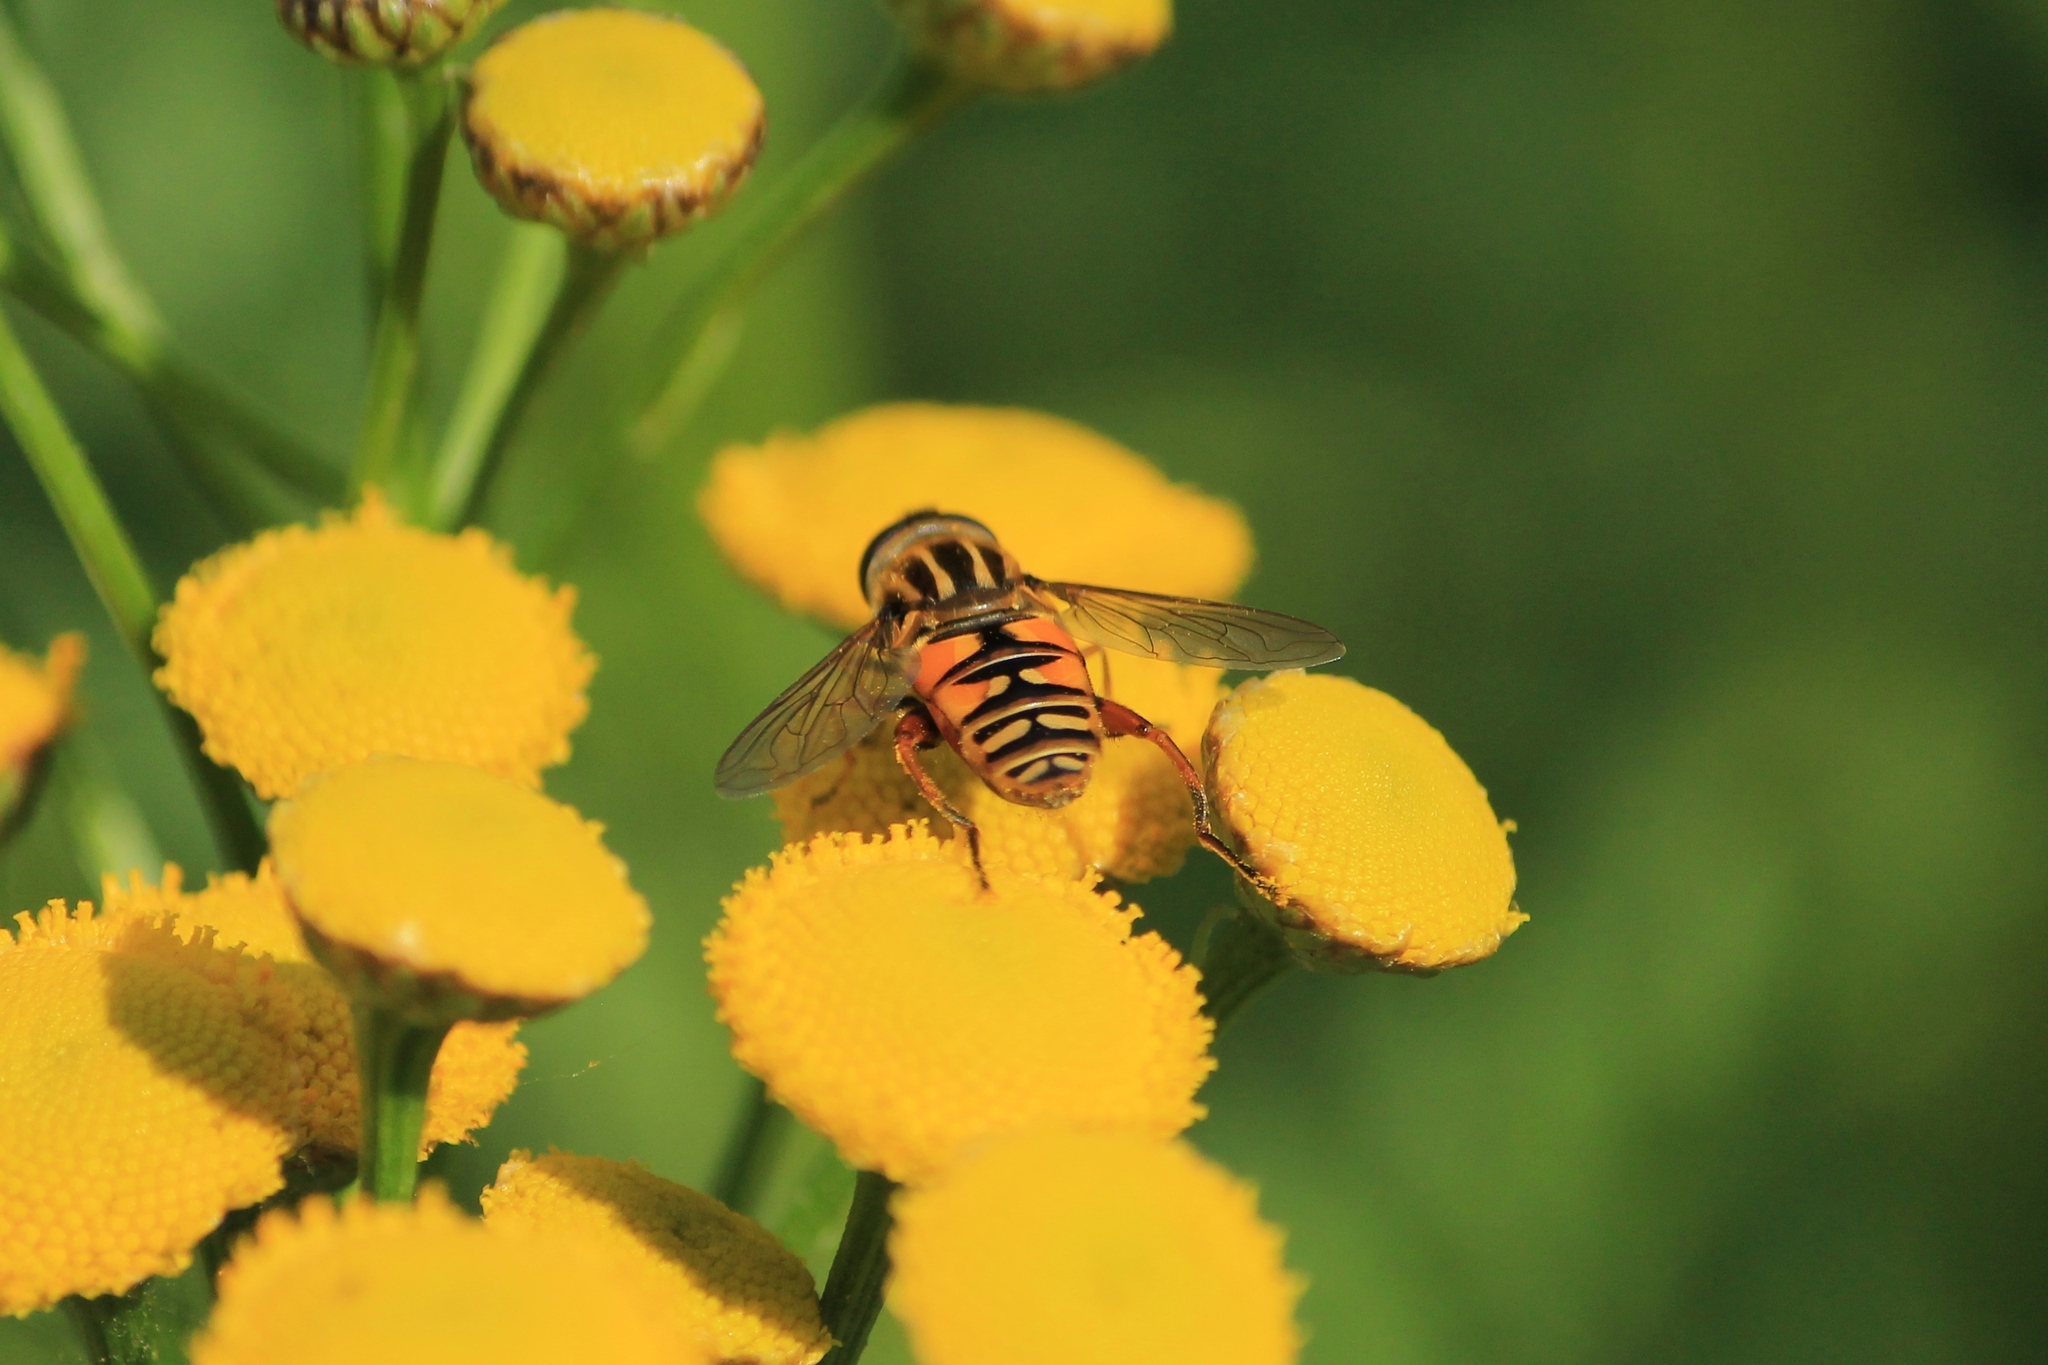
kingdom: Animalia
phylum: Arthropoda
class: Insecta
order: Diptera
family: Syrphidae
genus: Helophilus
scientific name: Helophilus pendulus
